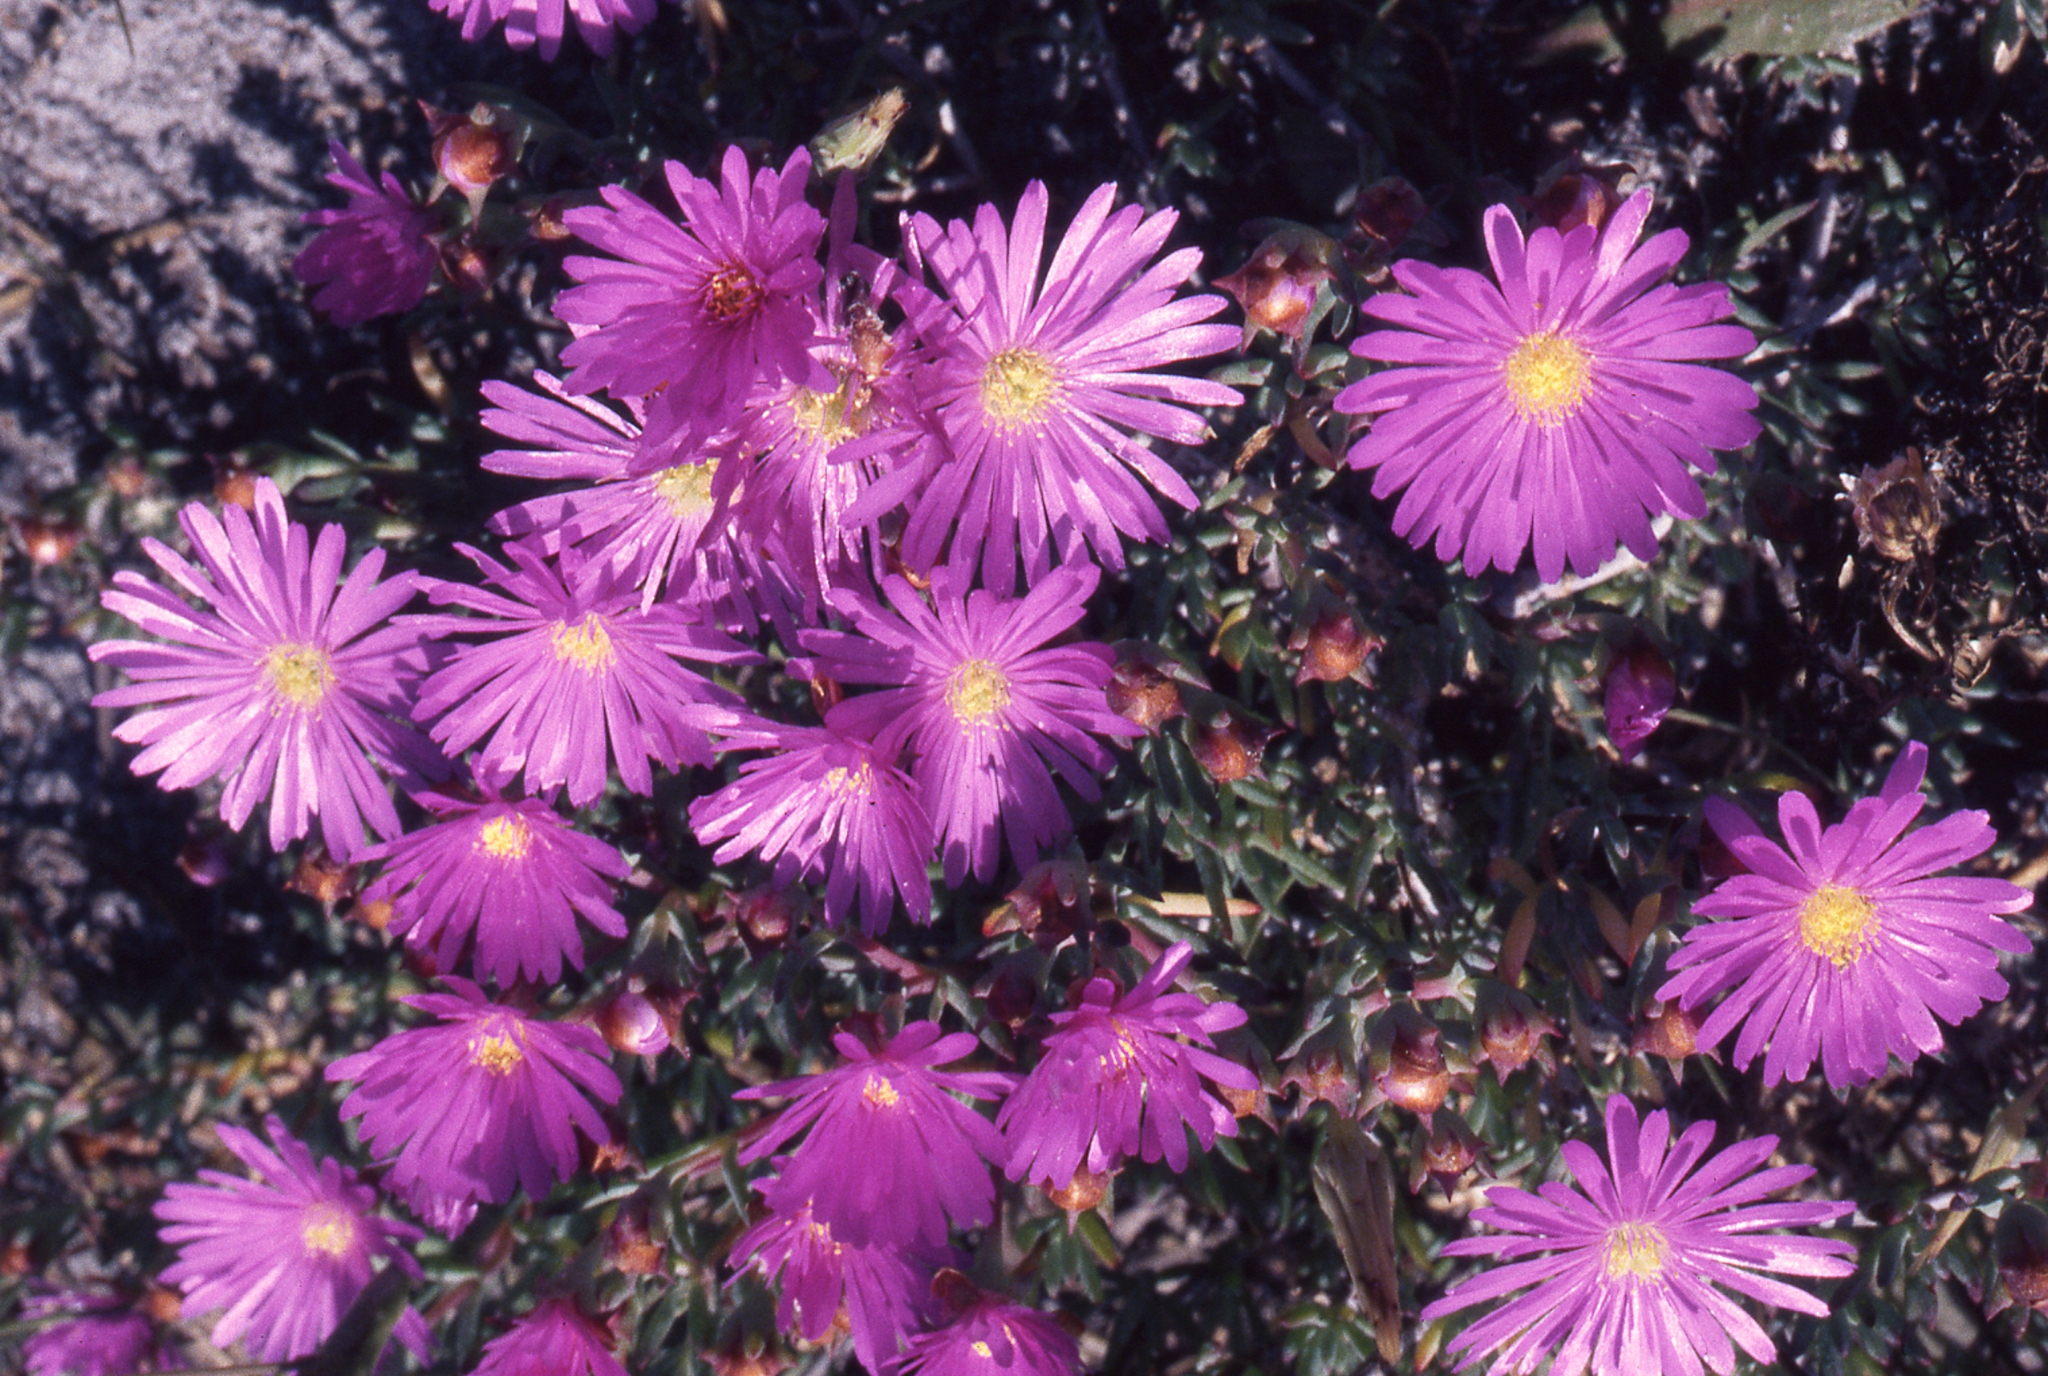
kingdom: Plantae
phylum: Tracheophyta
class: Magnoliopsida
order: Caryophyllales
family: Aizoaceae
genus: Lampranthus
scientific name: Lampranthus emarginatus
